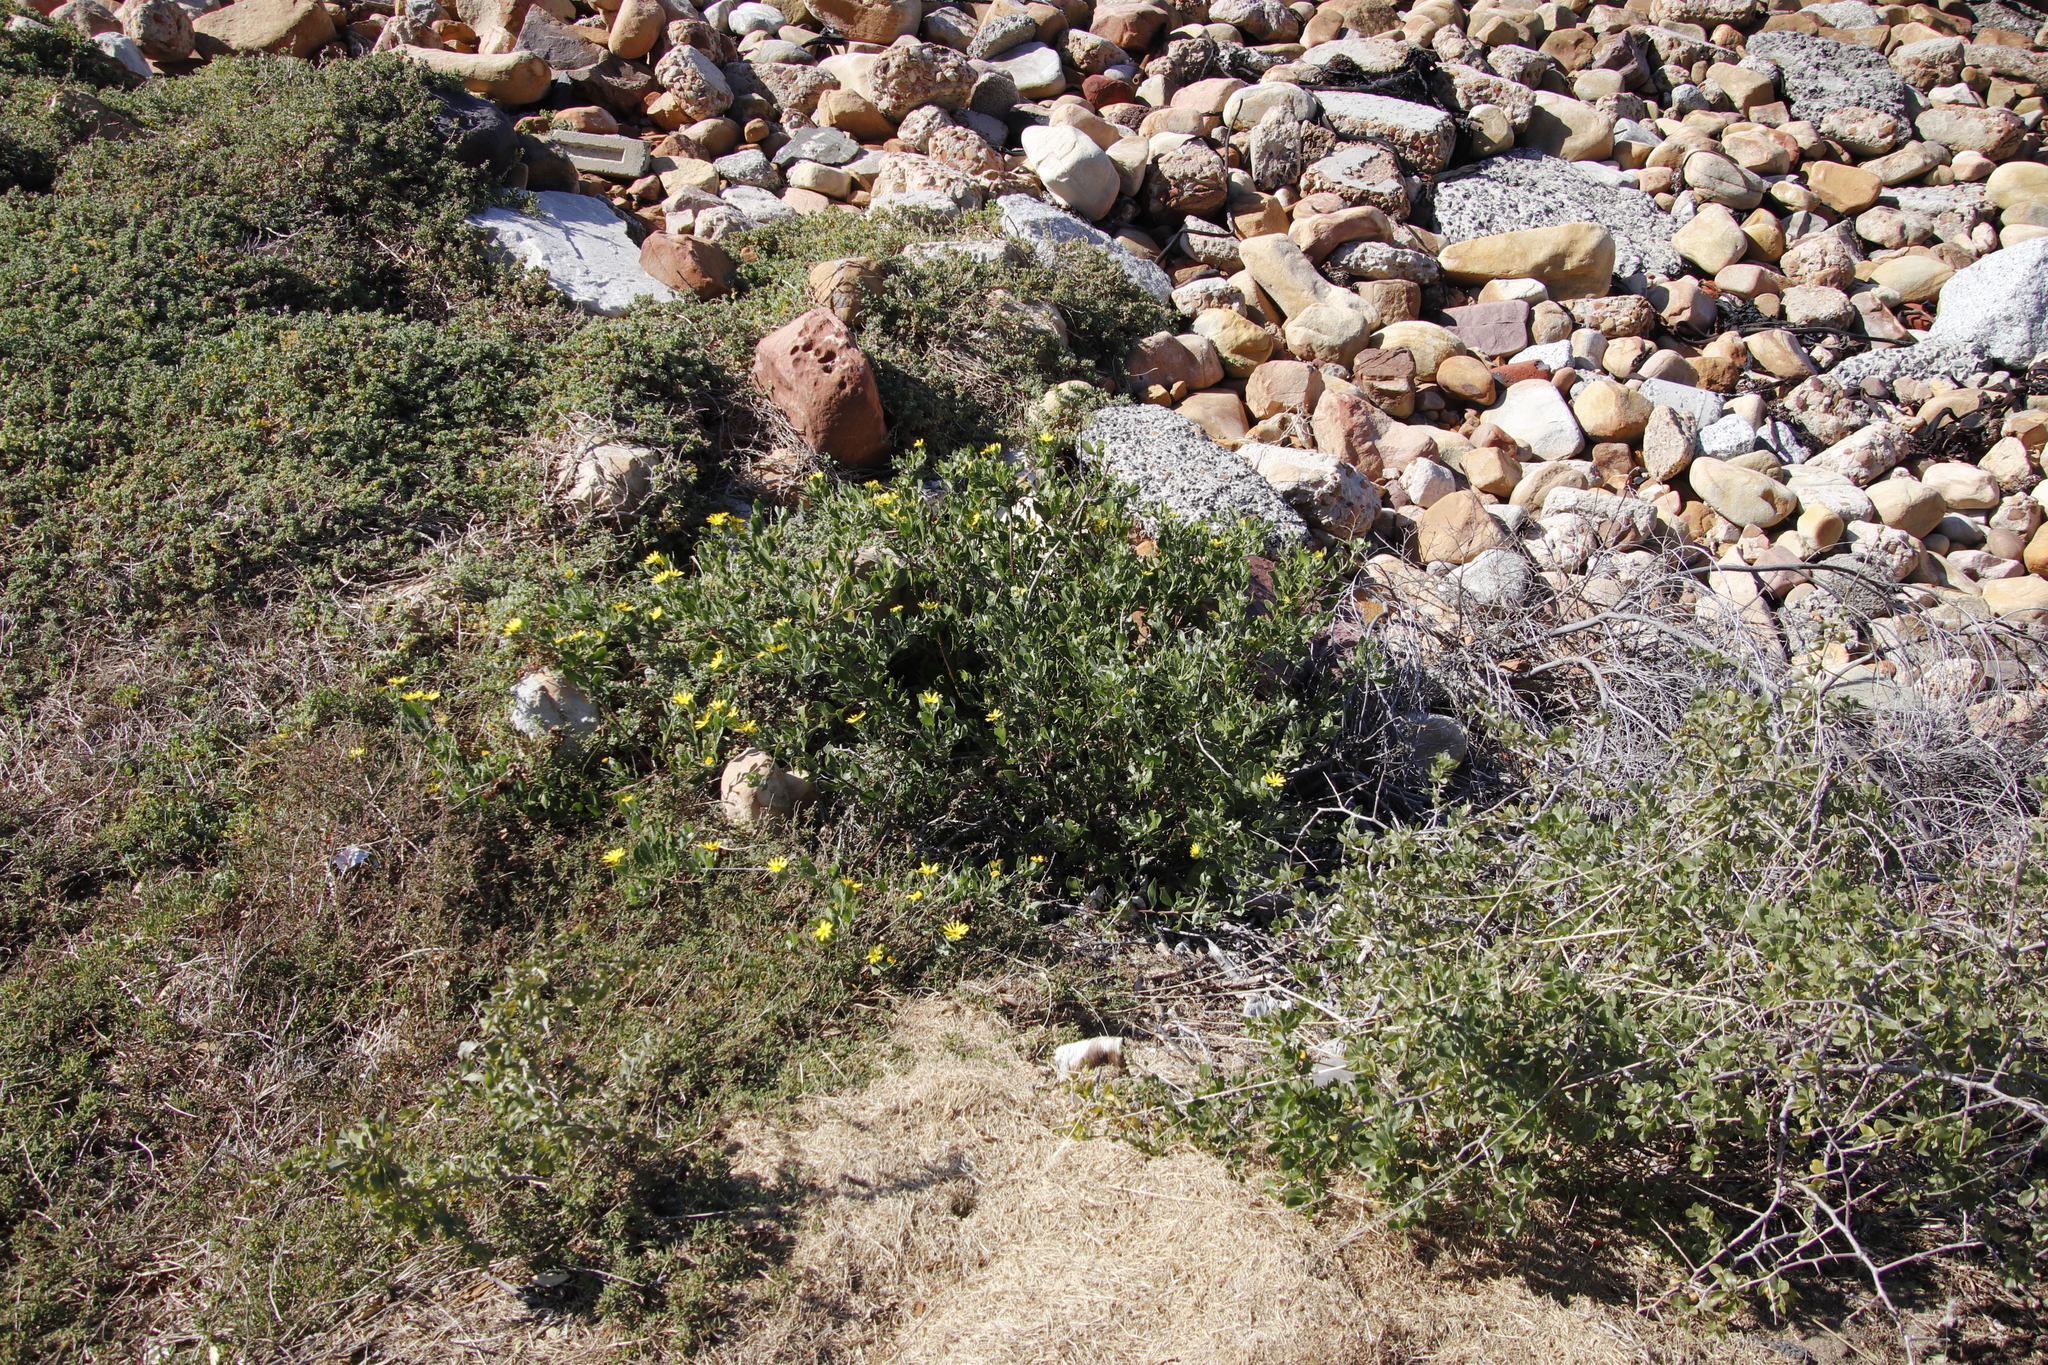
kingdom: Plantae
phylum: Tracheophyta
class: Magnoliopsida
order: Asterales
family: Asteraceae
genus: Osteospermum
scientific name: Osteospermum moniliferum
